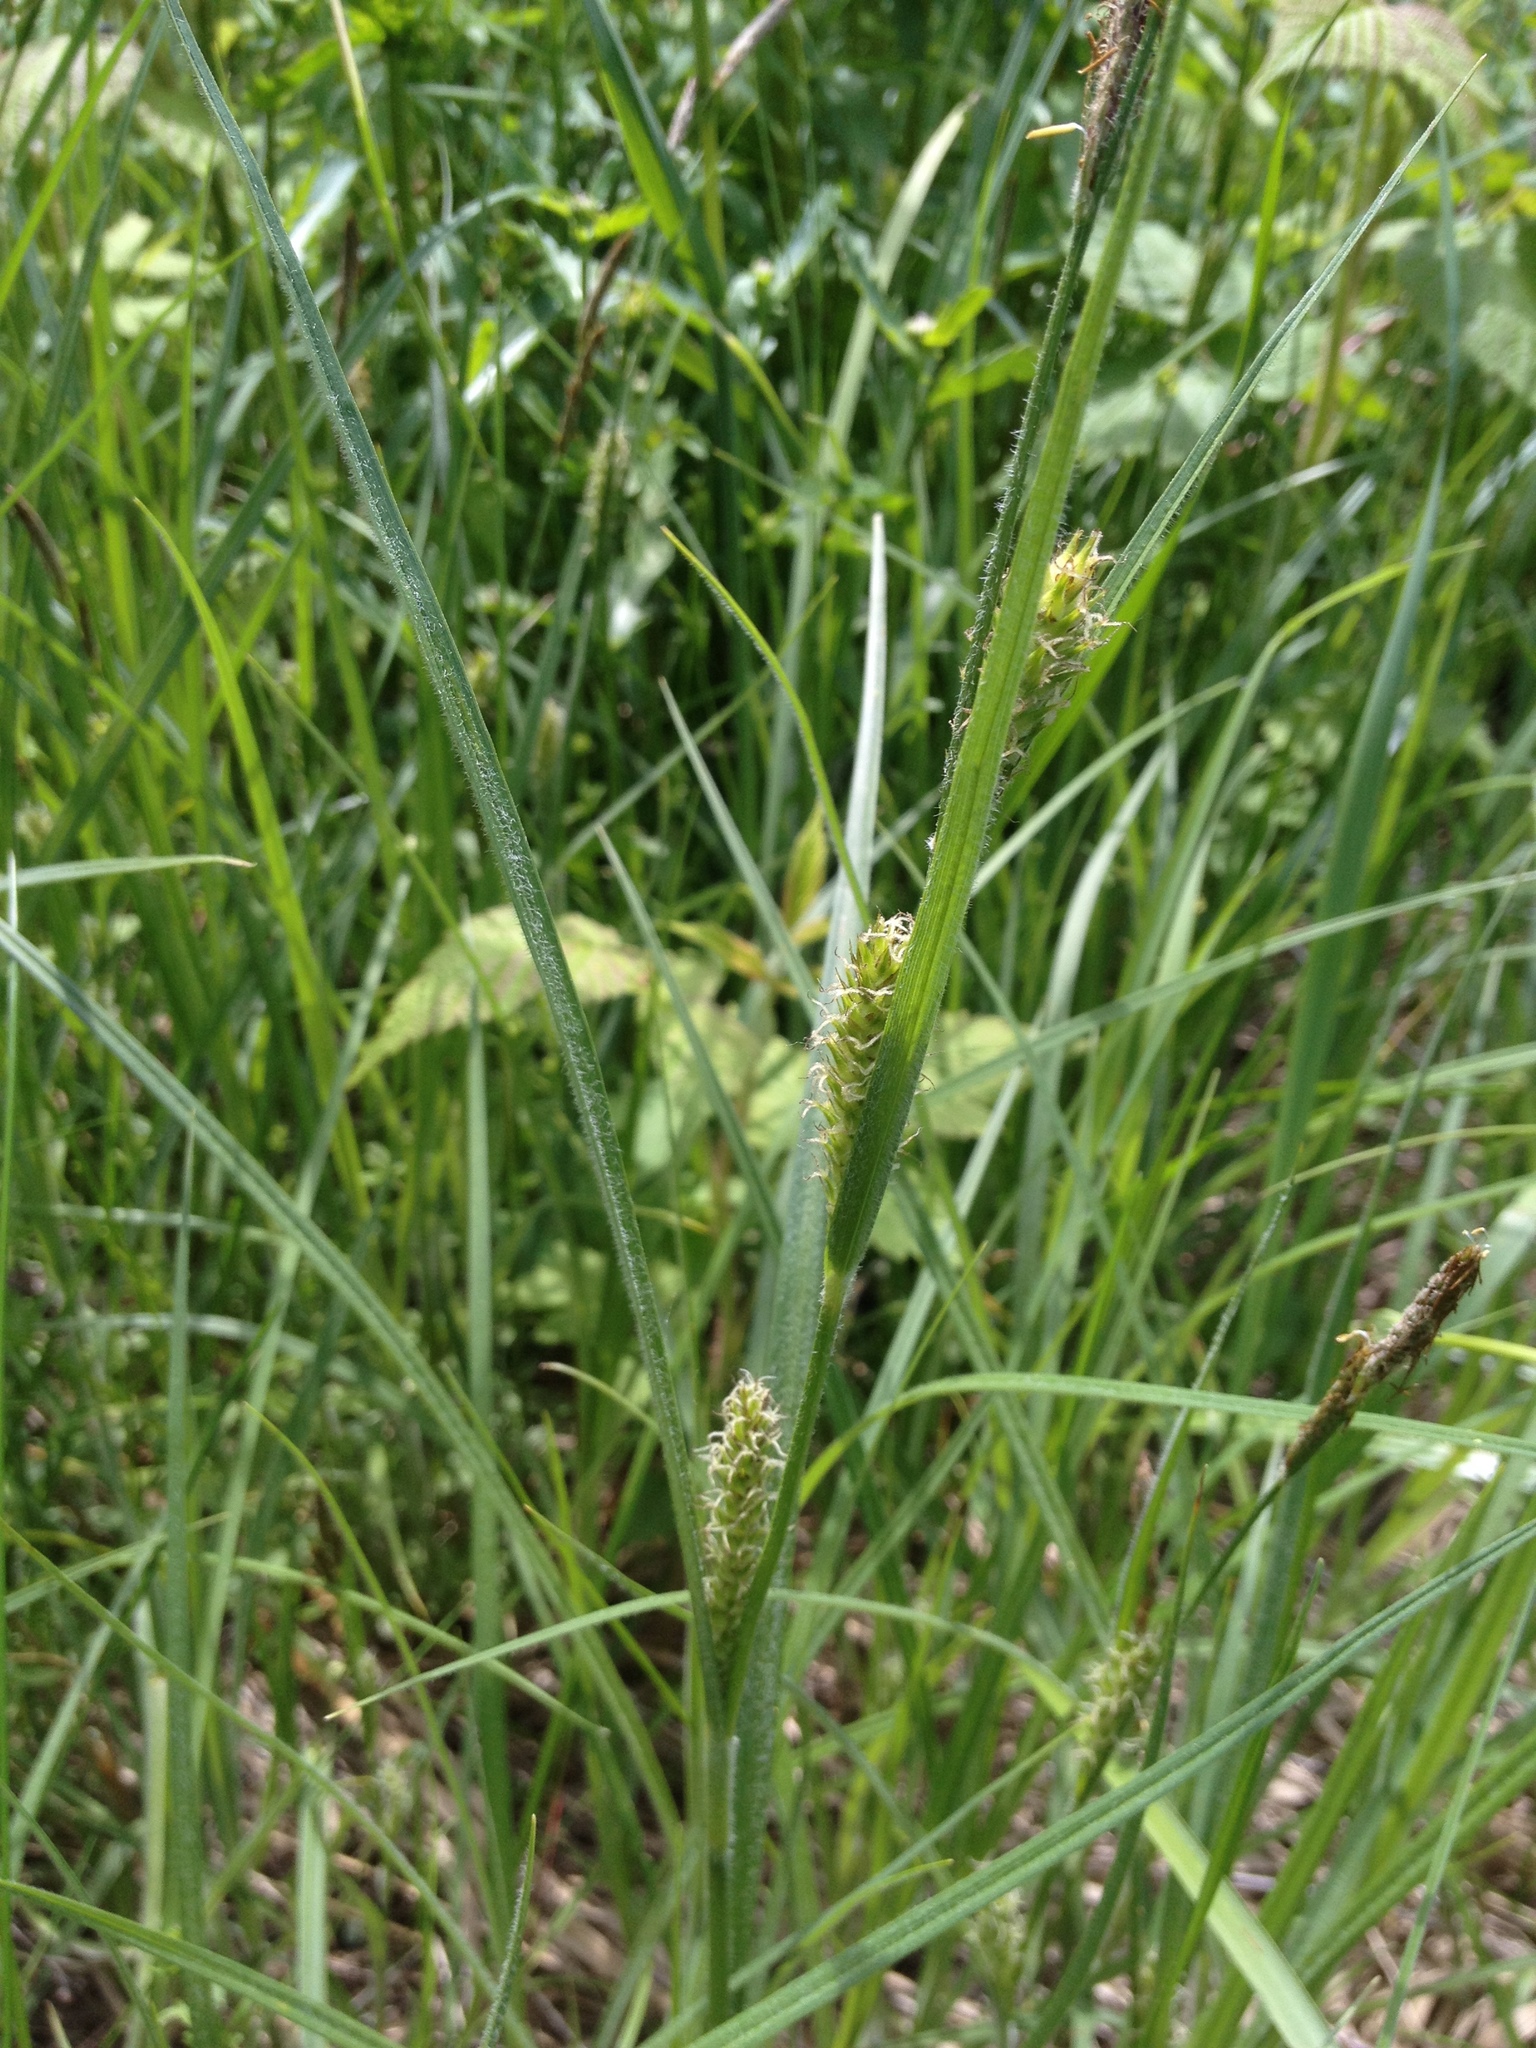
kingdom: Plantae
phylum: Tracheophyta
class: Liliopsida
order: Poales
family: Cyperaceae
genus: Carex
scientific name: Carex hirta
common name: Hairy sedge
